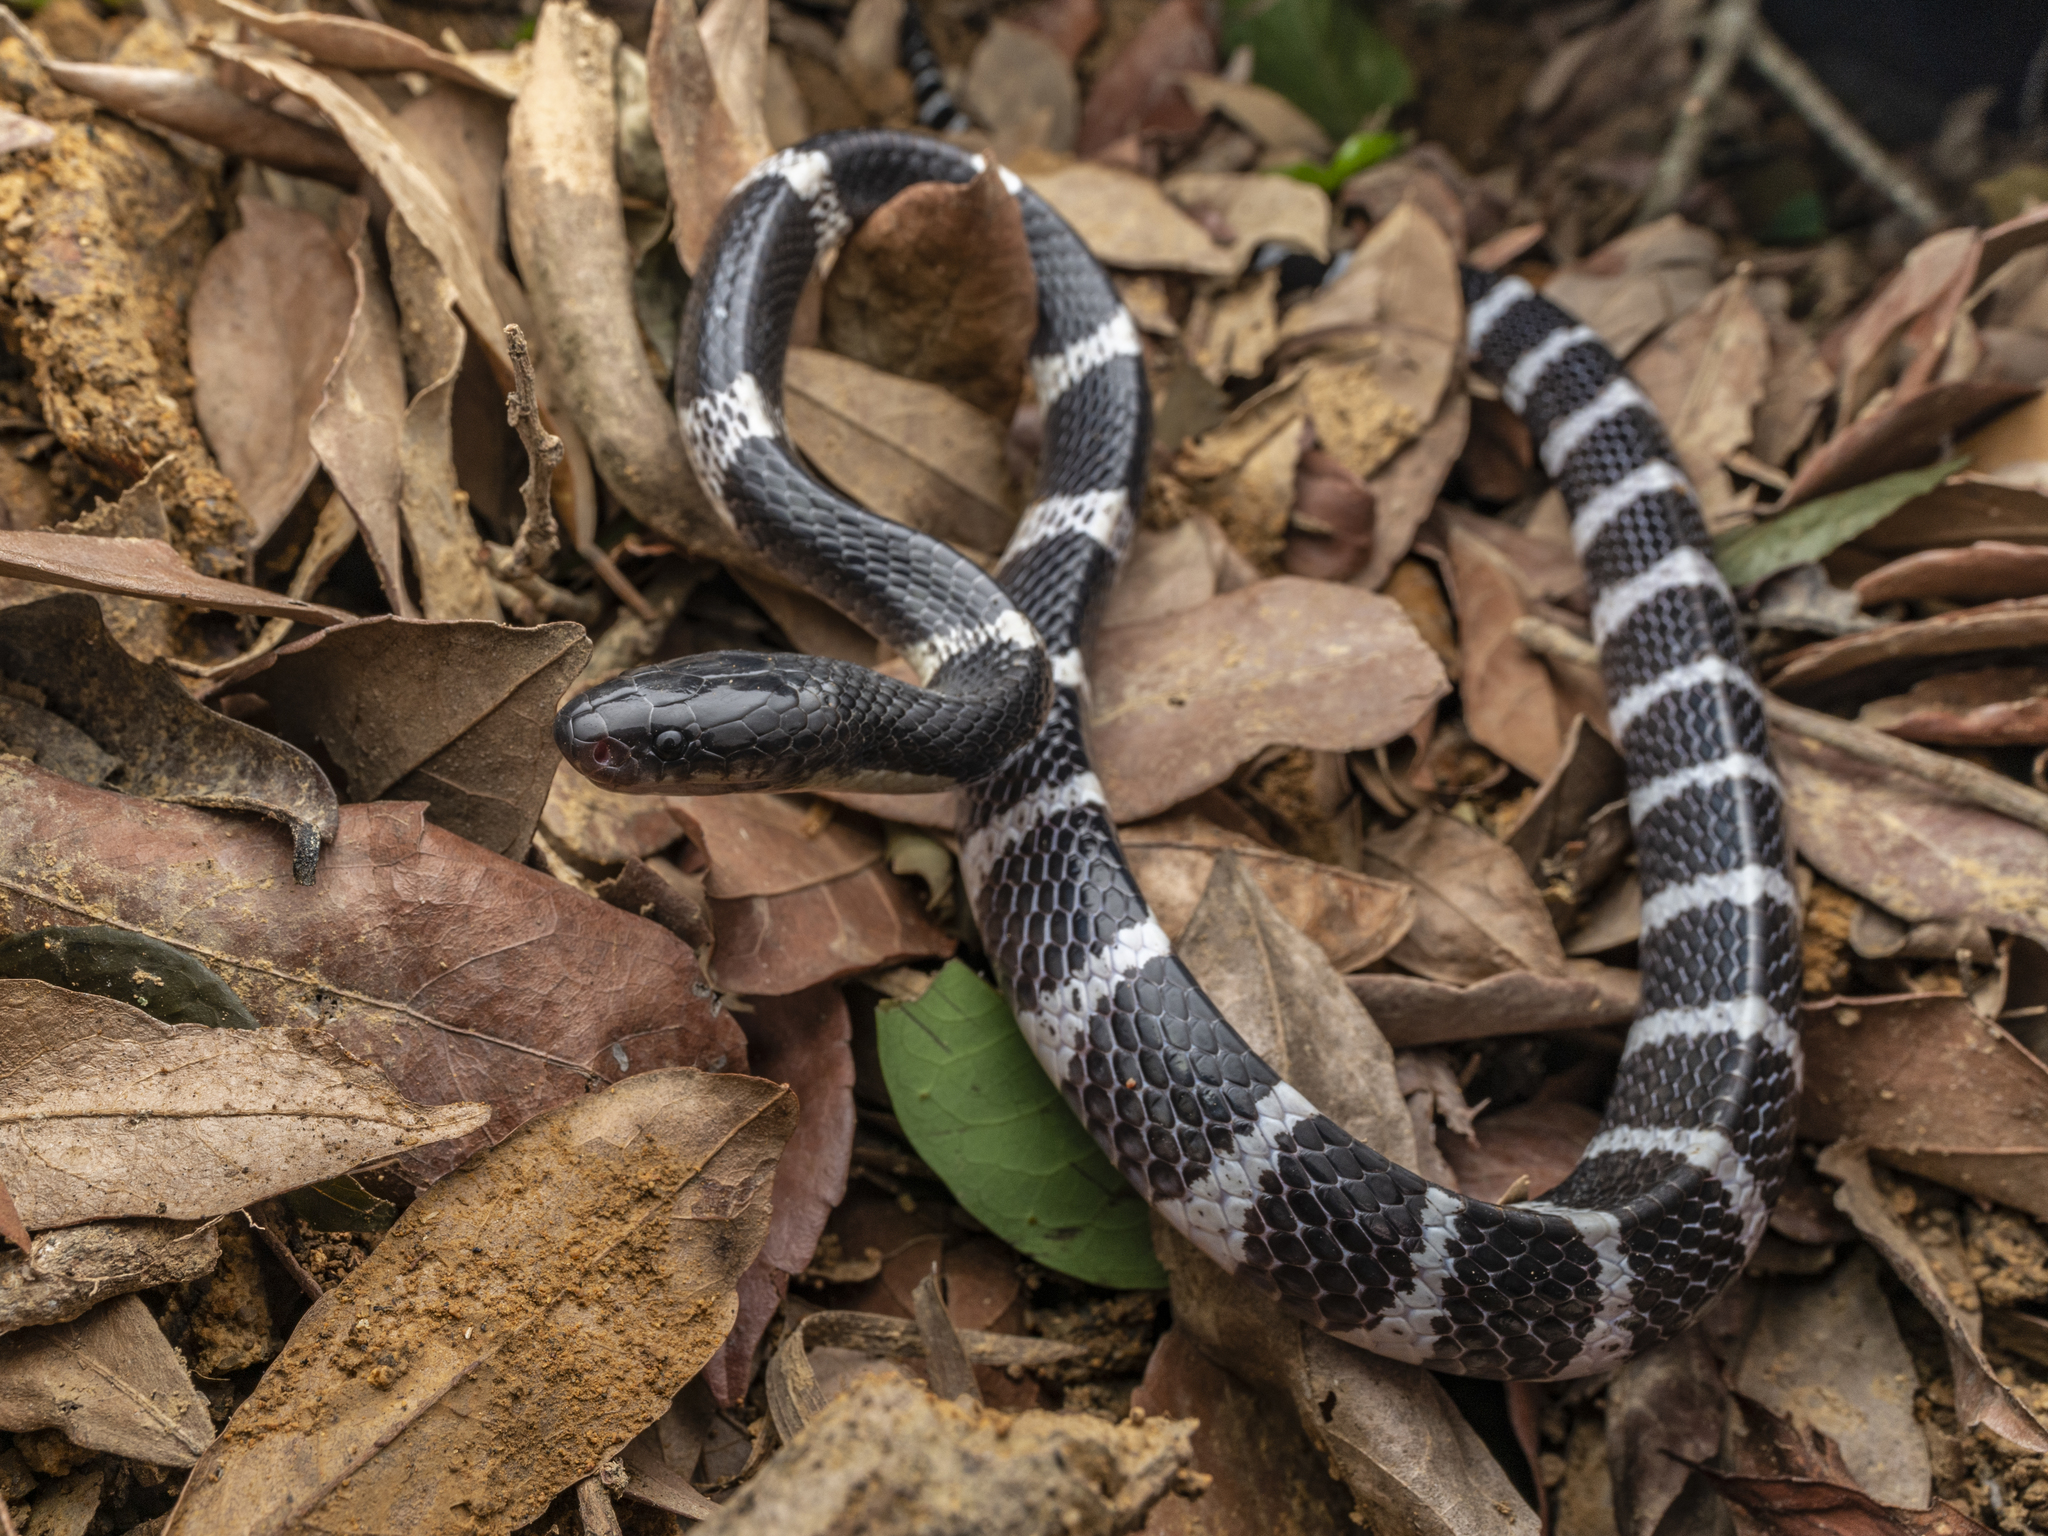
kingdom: Animalia
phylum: Chordata
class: Squamata
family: Elapidae
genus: Bungarus
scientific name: Bungarus multicinctus
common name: Many-banded krait
